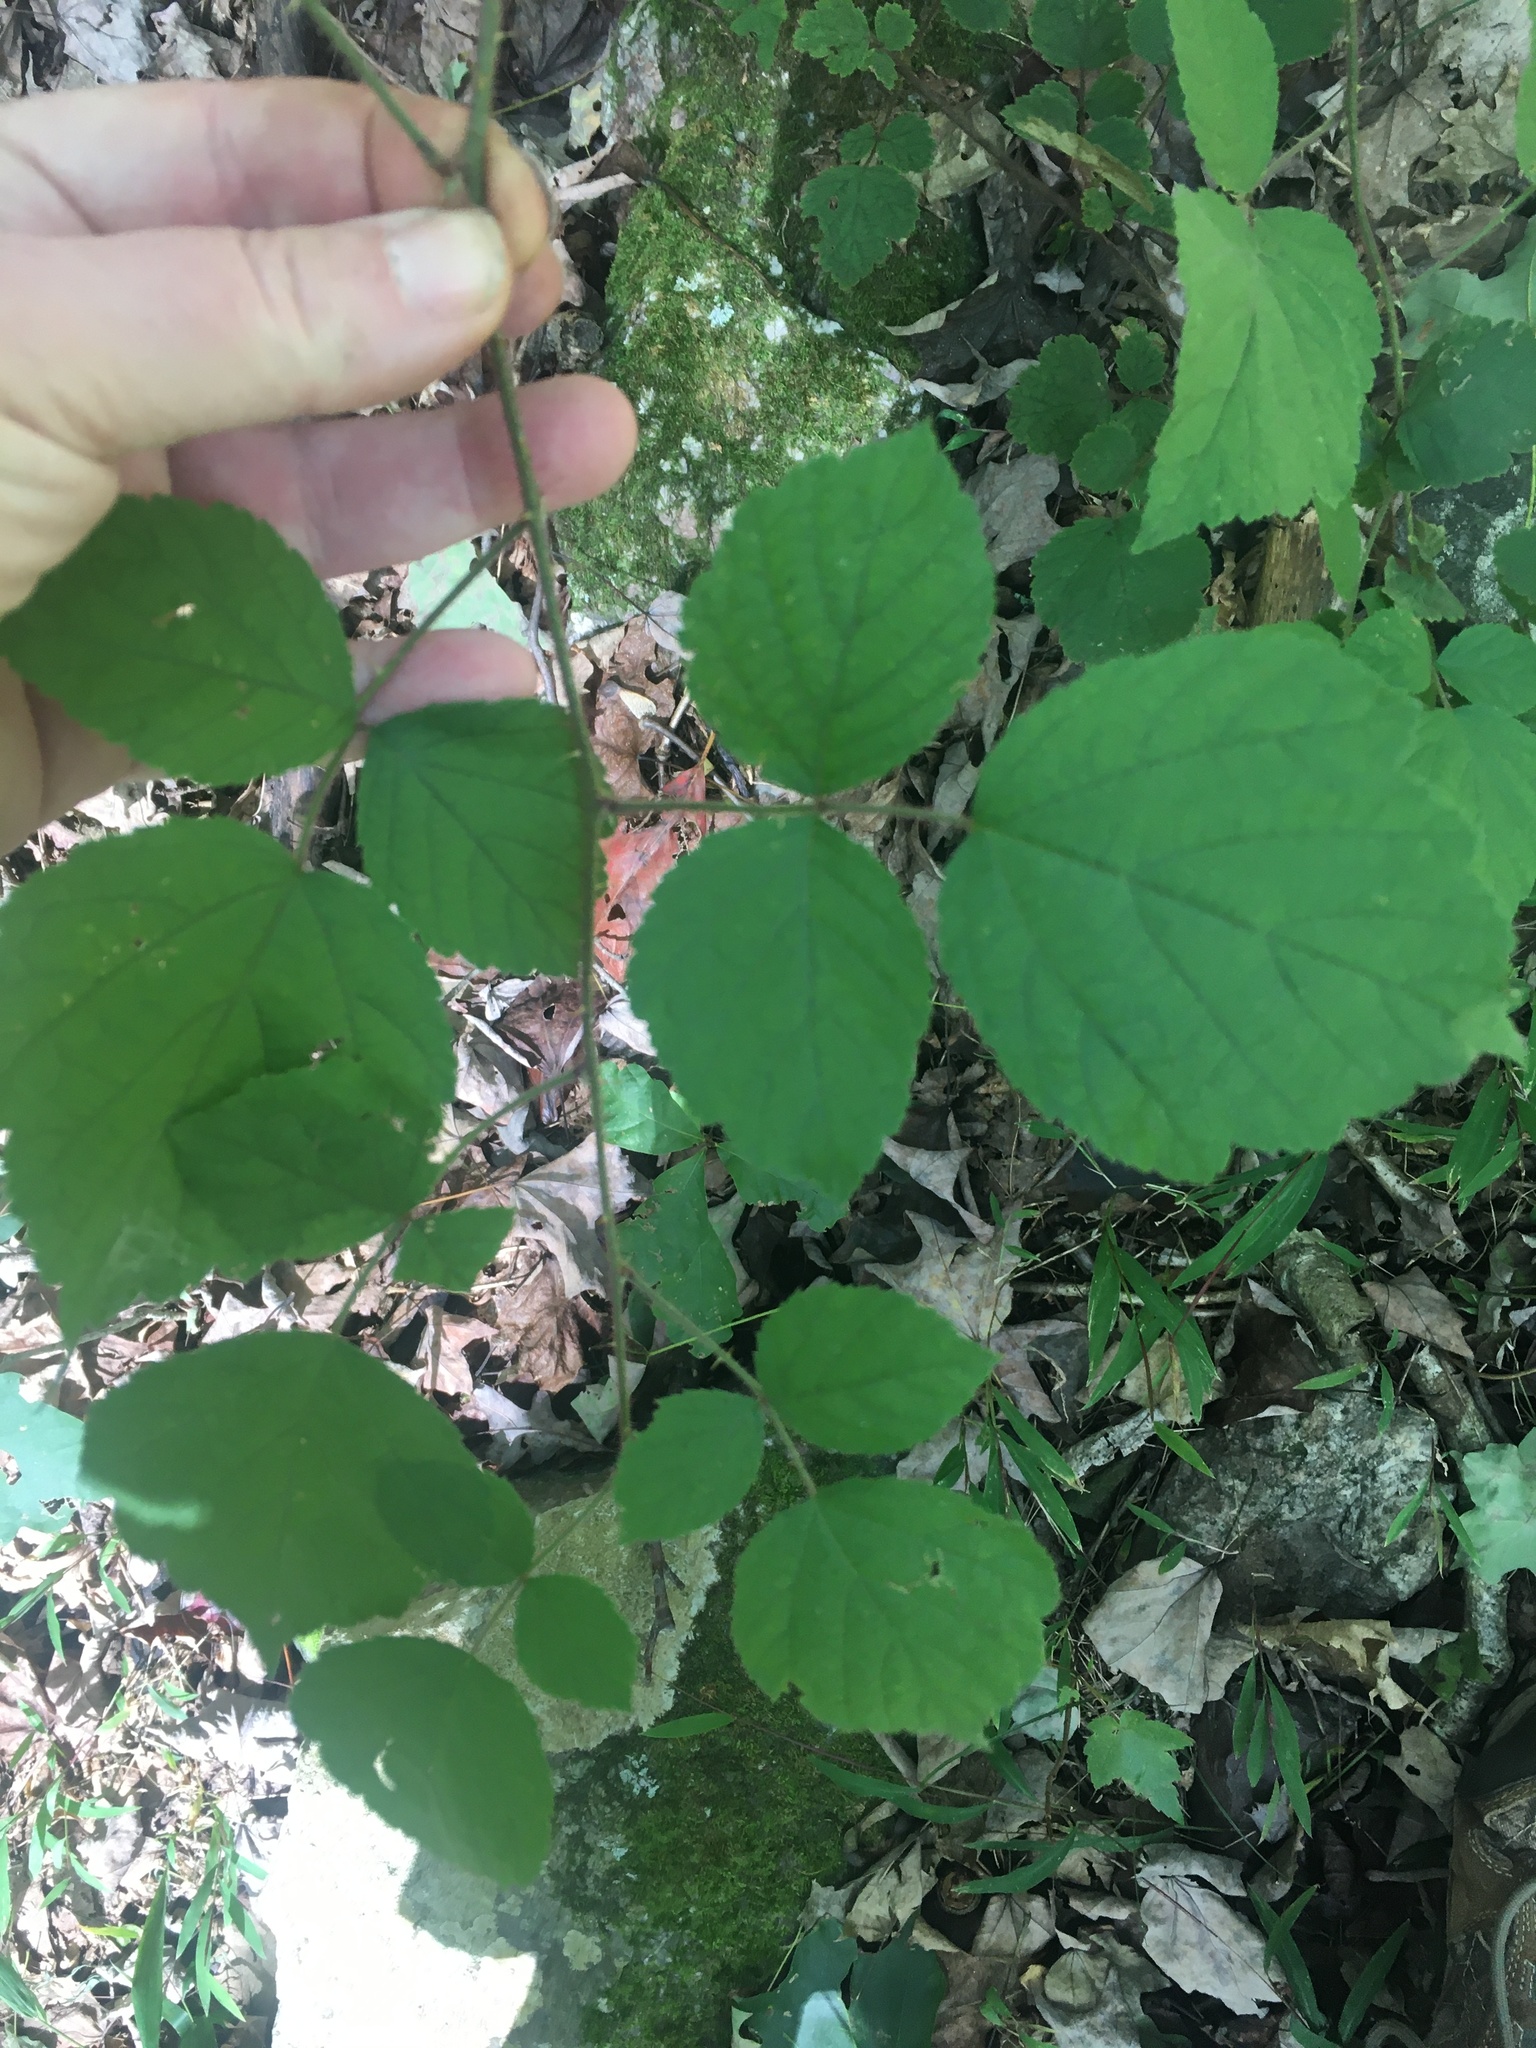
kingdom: Plantae
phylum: Tracheophyta
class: Magnoliopsida
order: Rosales
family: Rosaceae
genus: Rubus
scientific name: Rubus phoenicolasius
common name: Japanese wineberry
